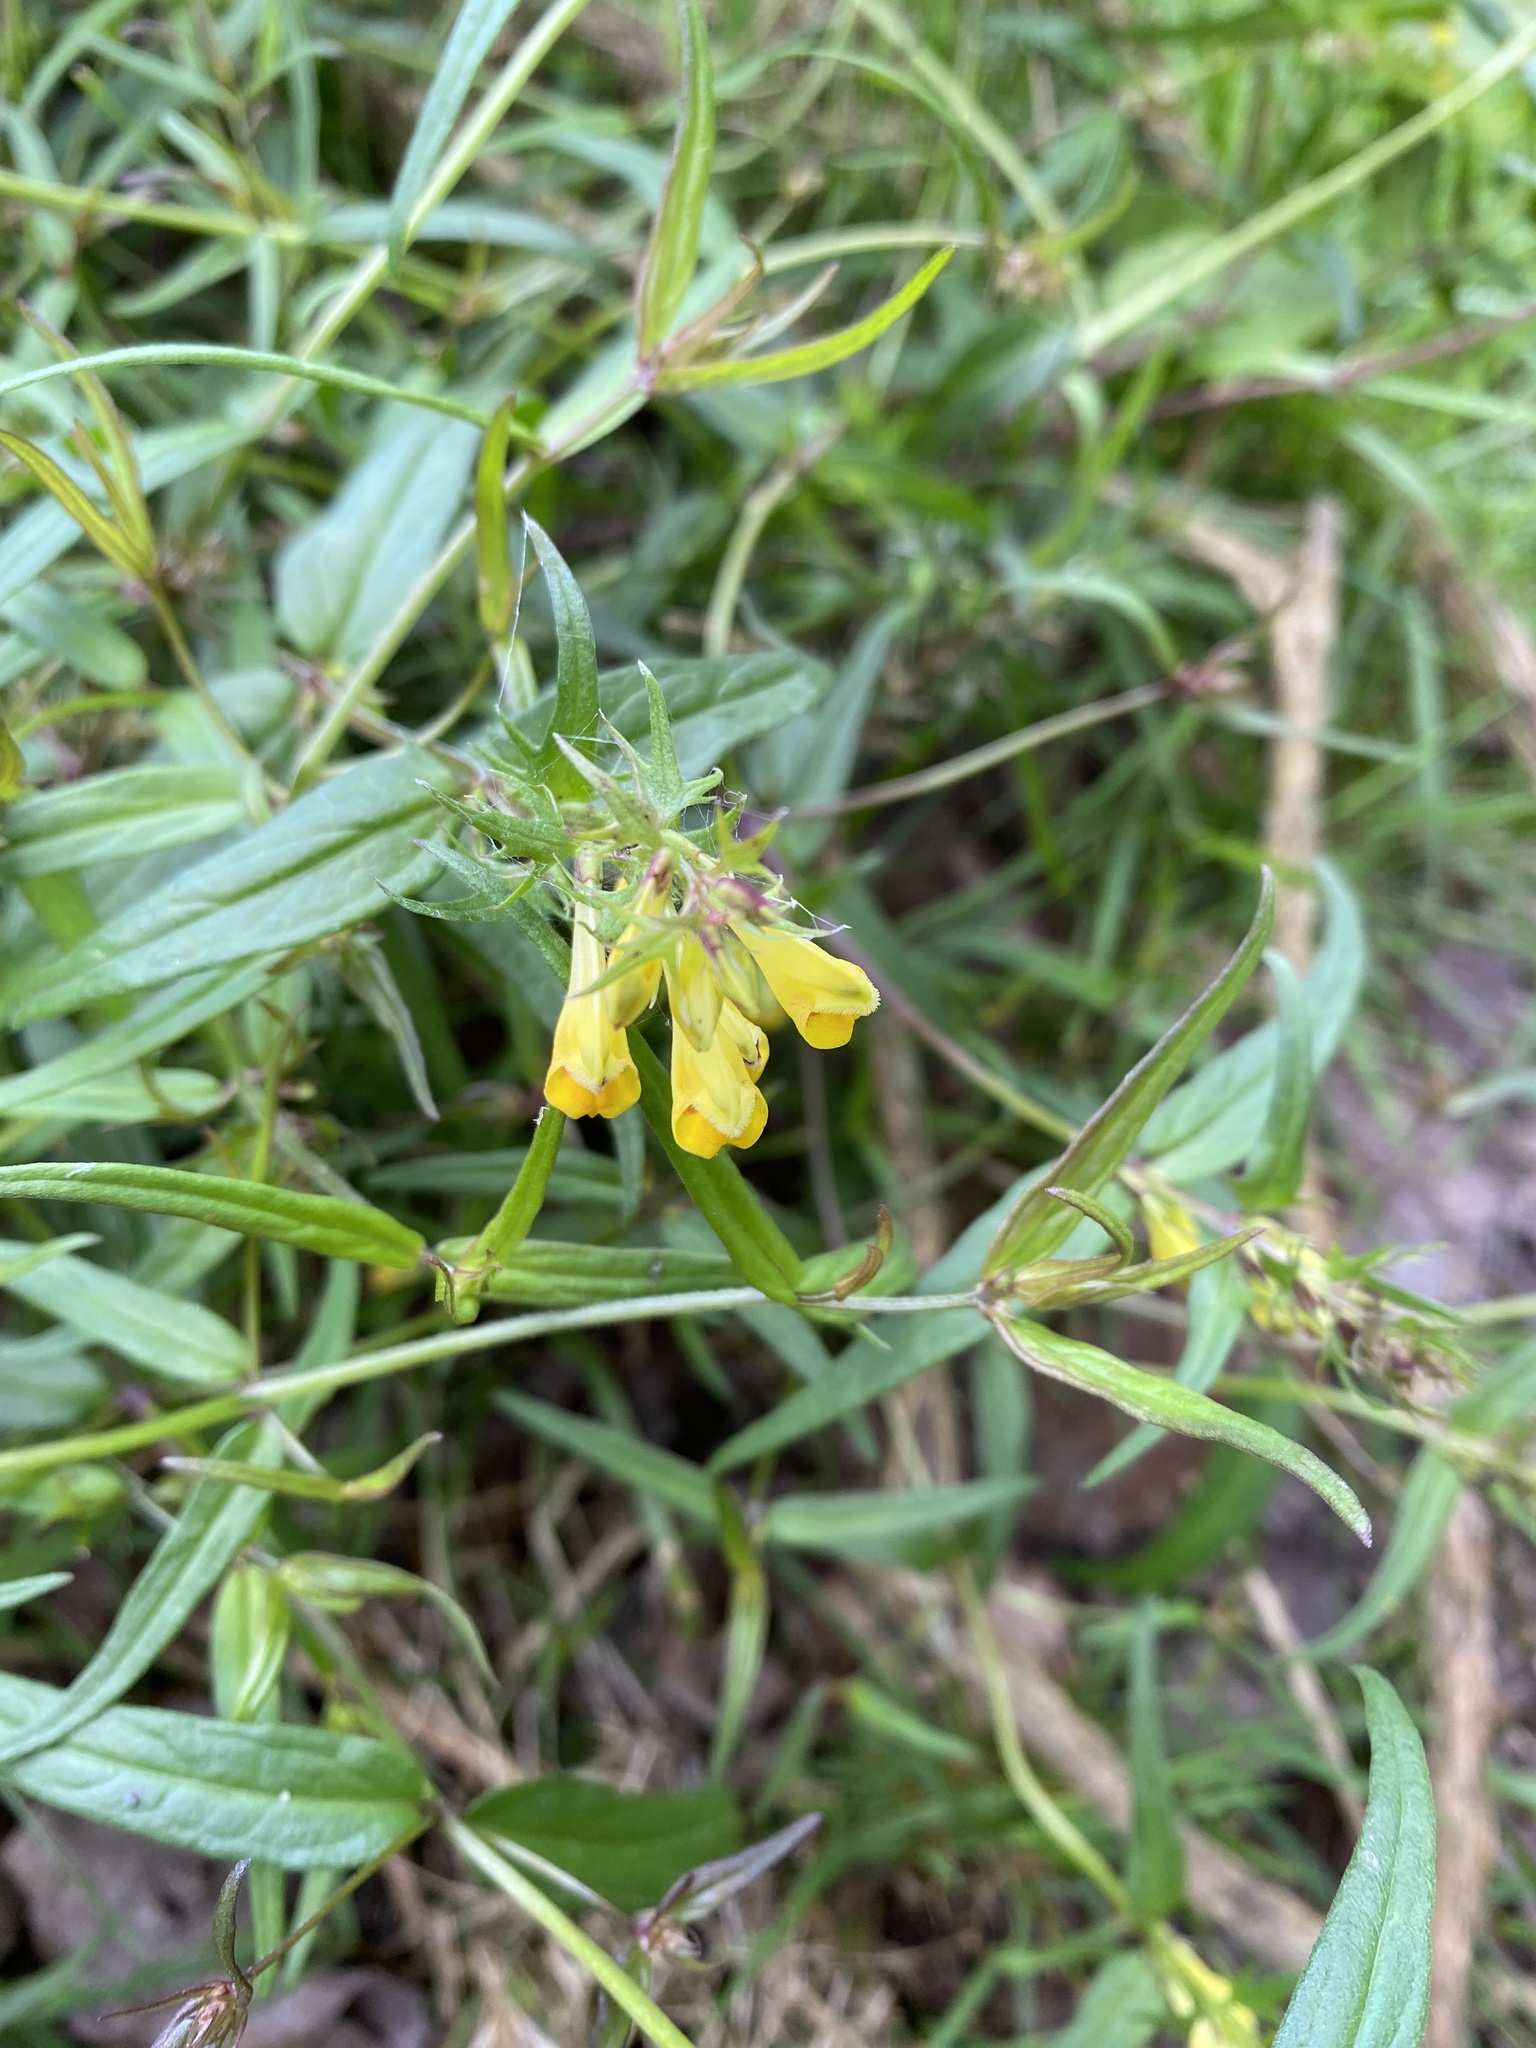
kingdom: Plantae
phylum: Tracheophyta
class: Magnoliopsida
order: Lamiales
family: Orobanchaceae
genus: Melampyrum
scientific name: Melampyrum pratense
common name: Common cow-wheat
